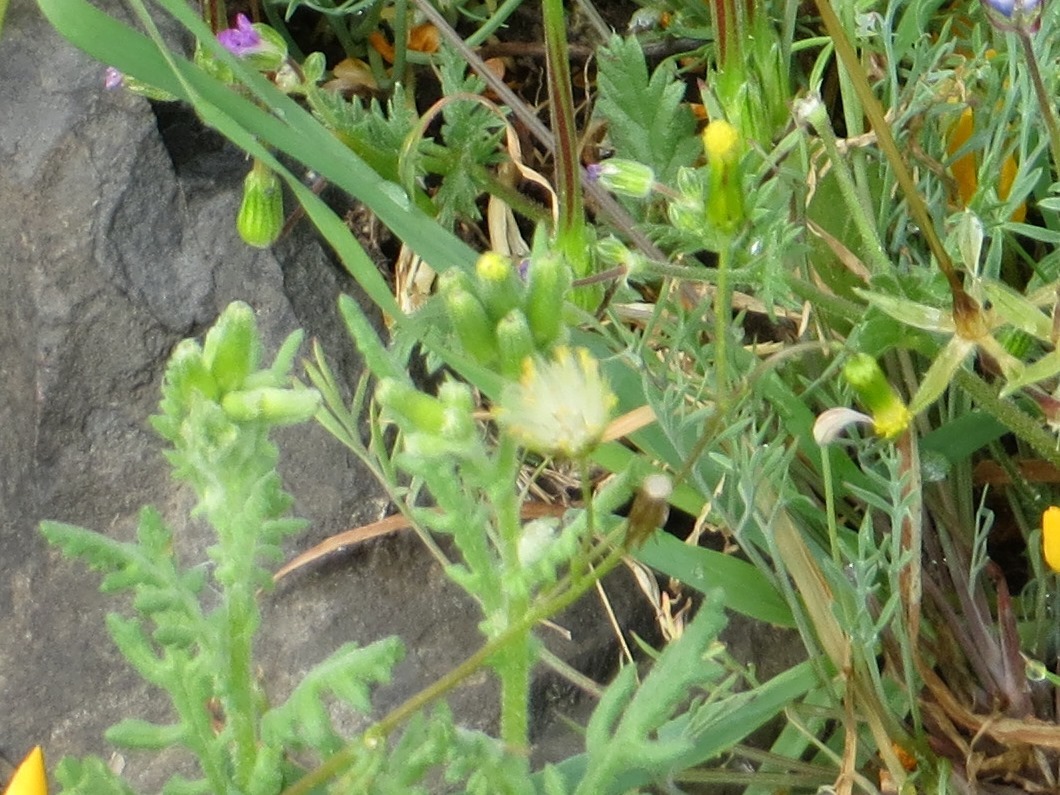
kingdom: Plantae
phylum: Tracheophyta
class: Magnoliopsida
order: Asterales
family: Asteraceae
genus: Senecio
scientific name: Senecio vulgaris
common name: Old-man-in-the-spring
